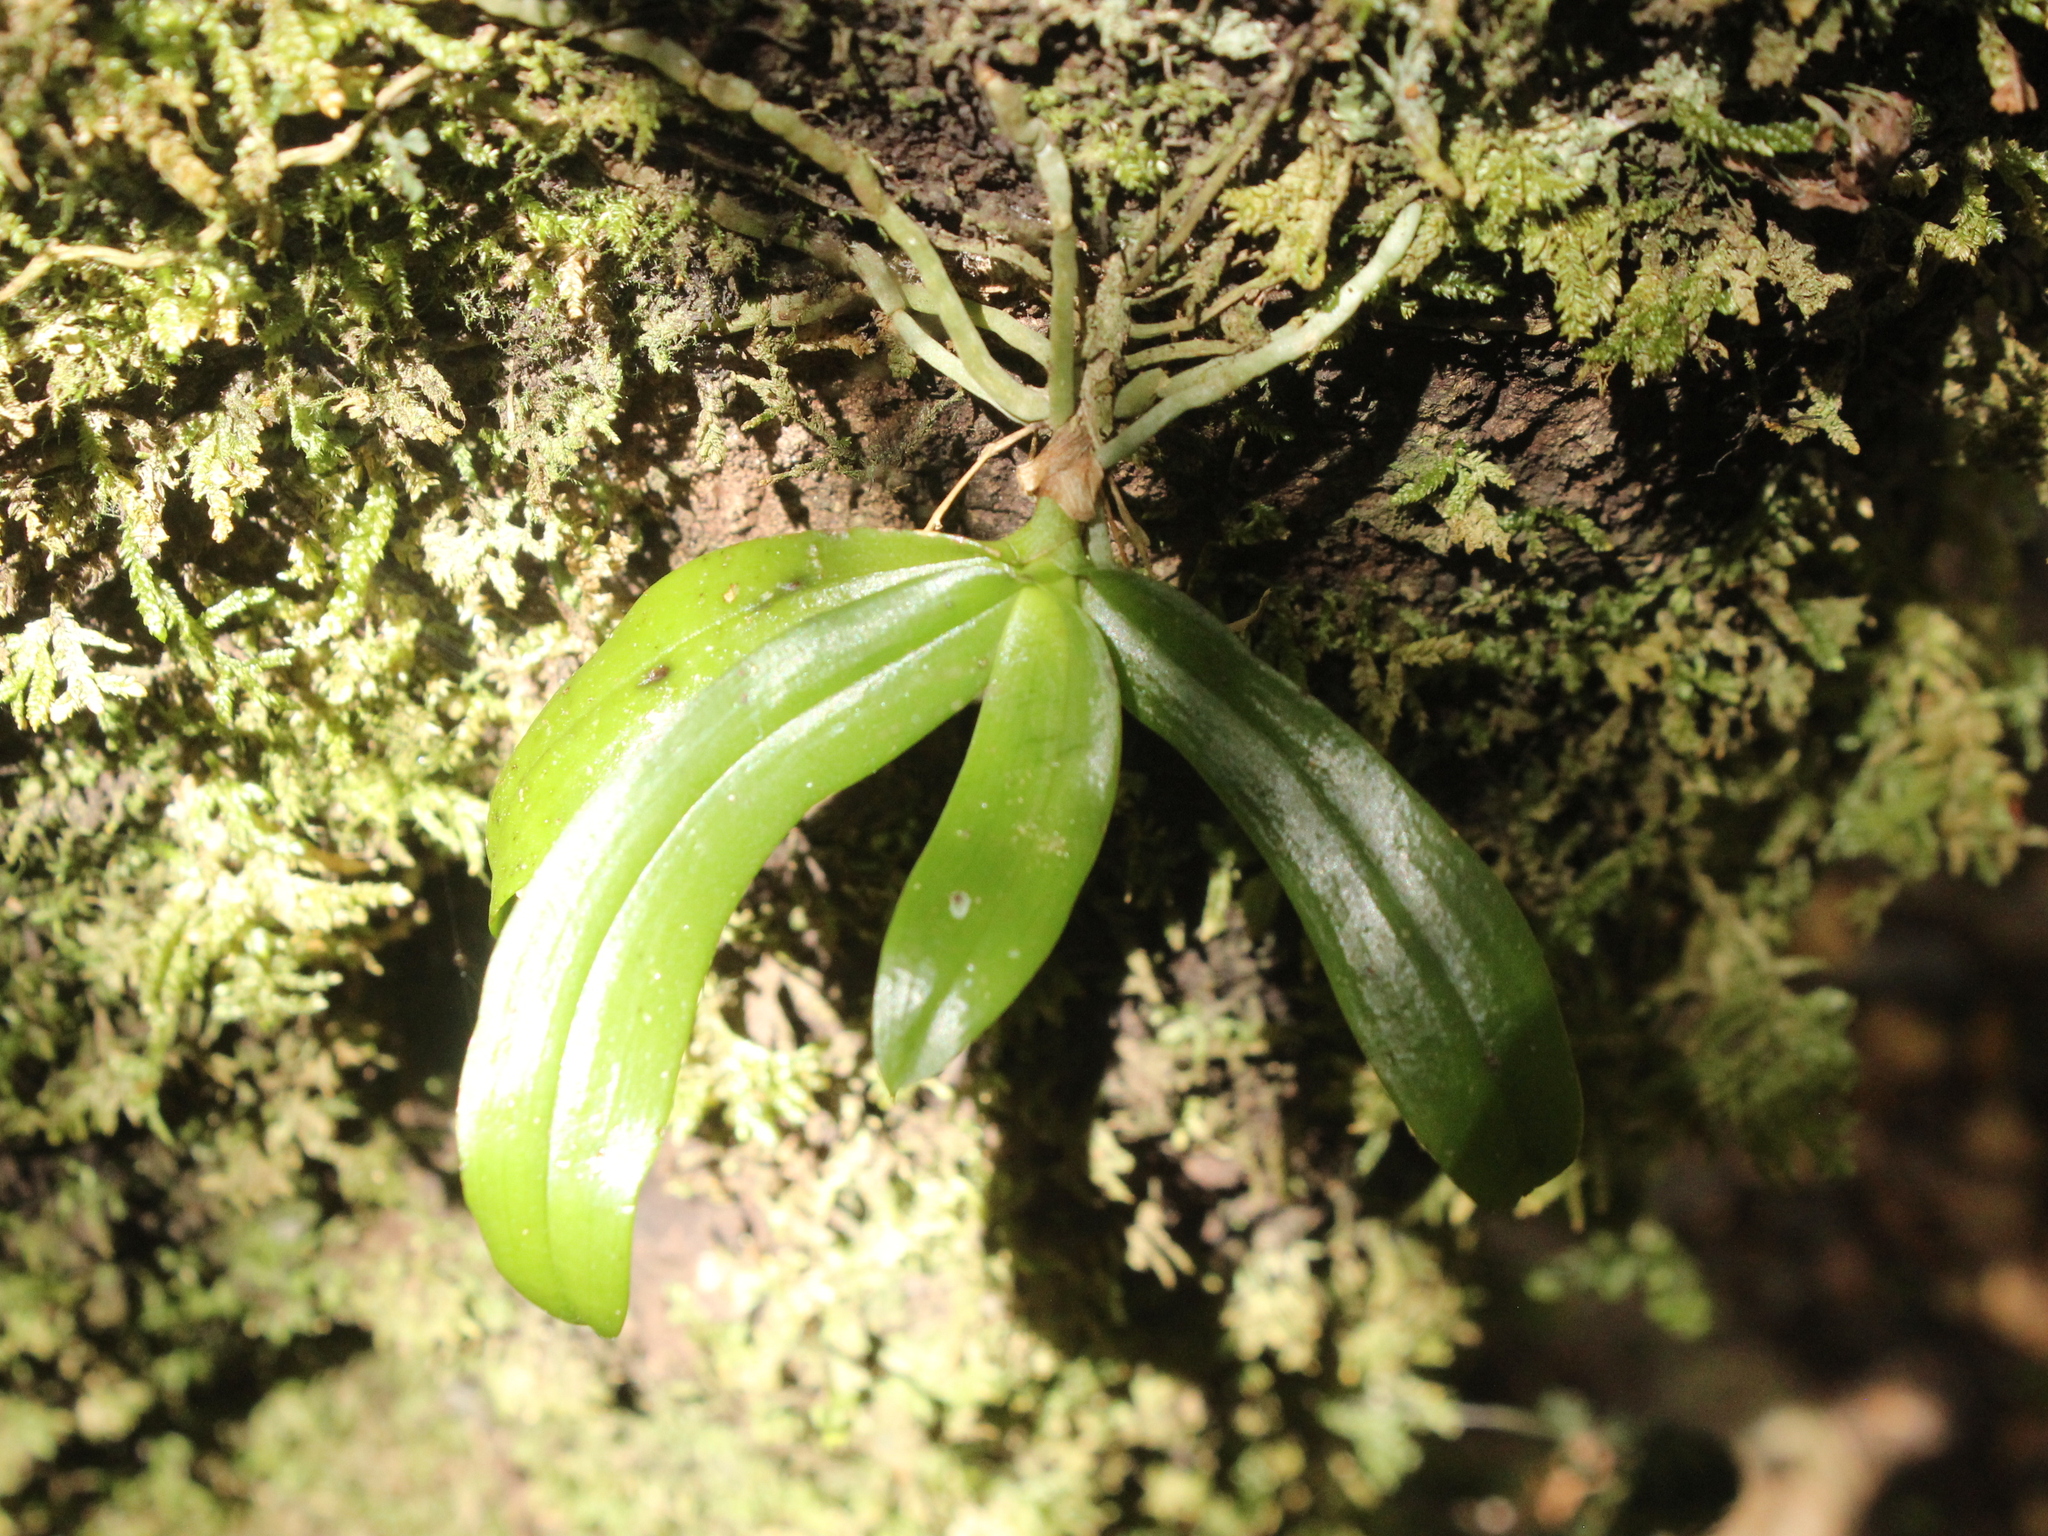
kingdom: Plantae
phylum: Tracheophyta
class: Liliopsida
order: Asparagales
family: Orchidaceae
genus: Drymoanthus
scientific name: Drymoanthus adversus
